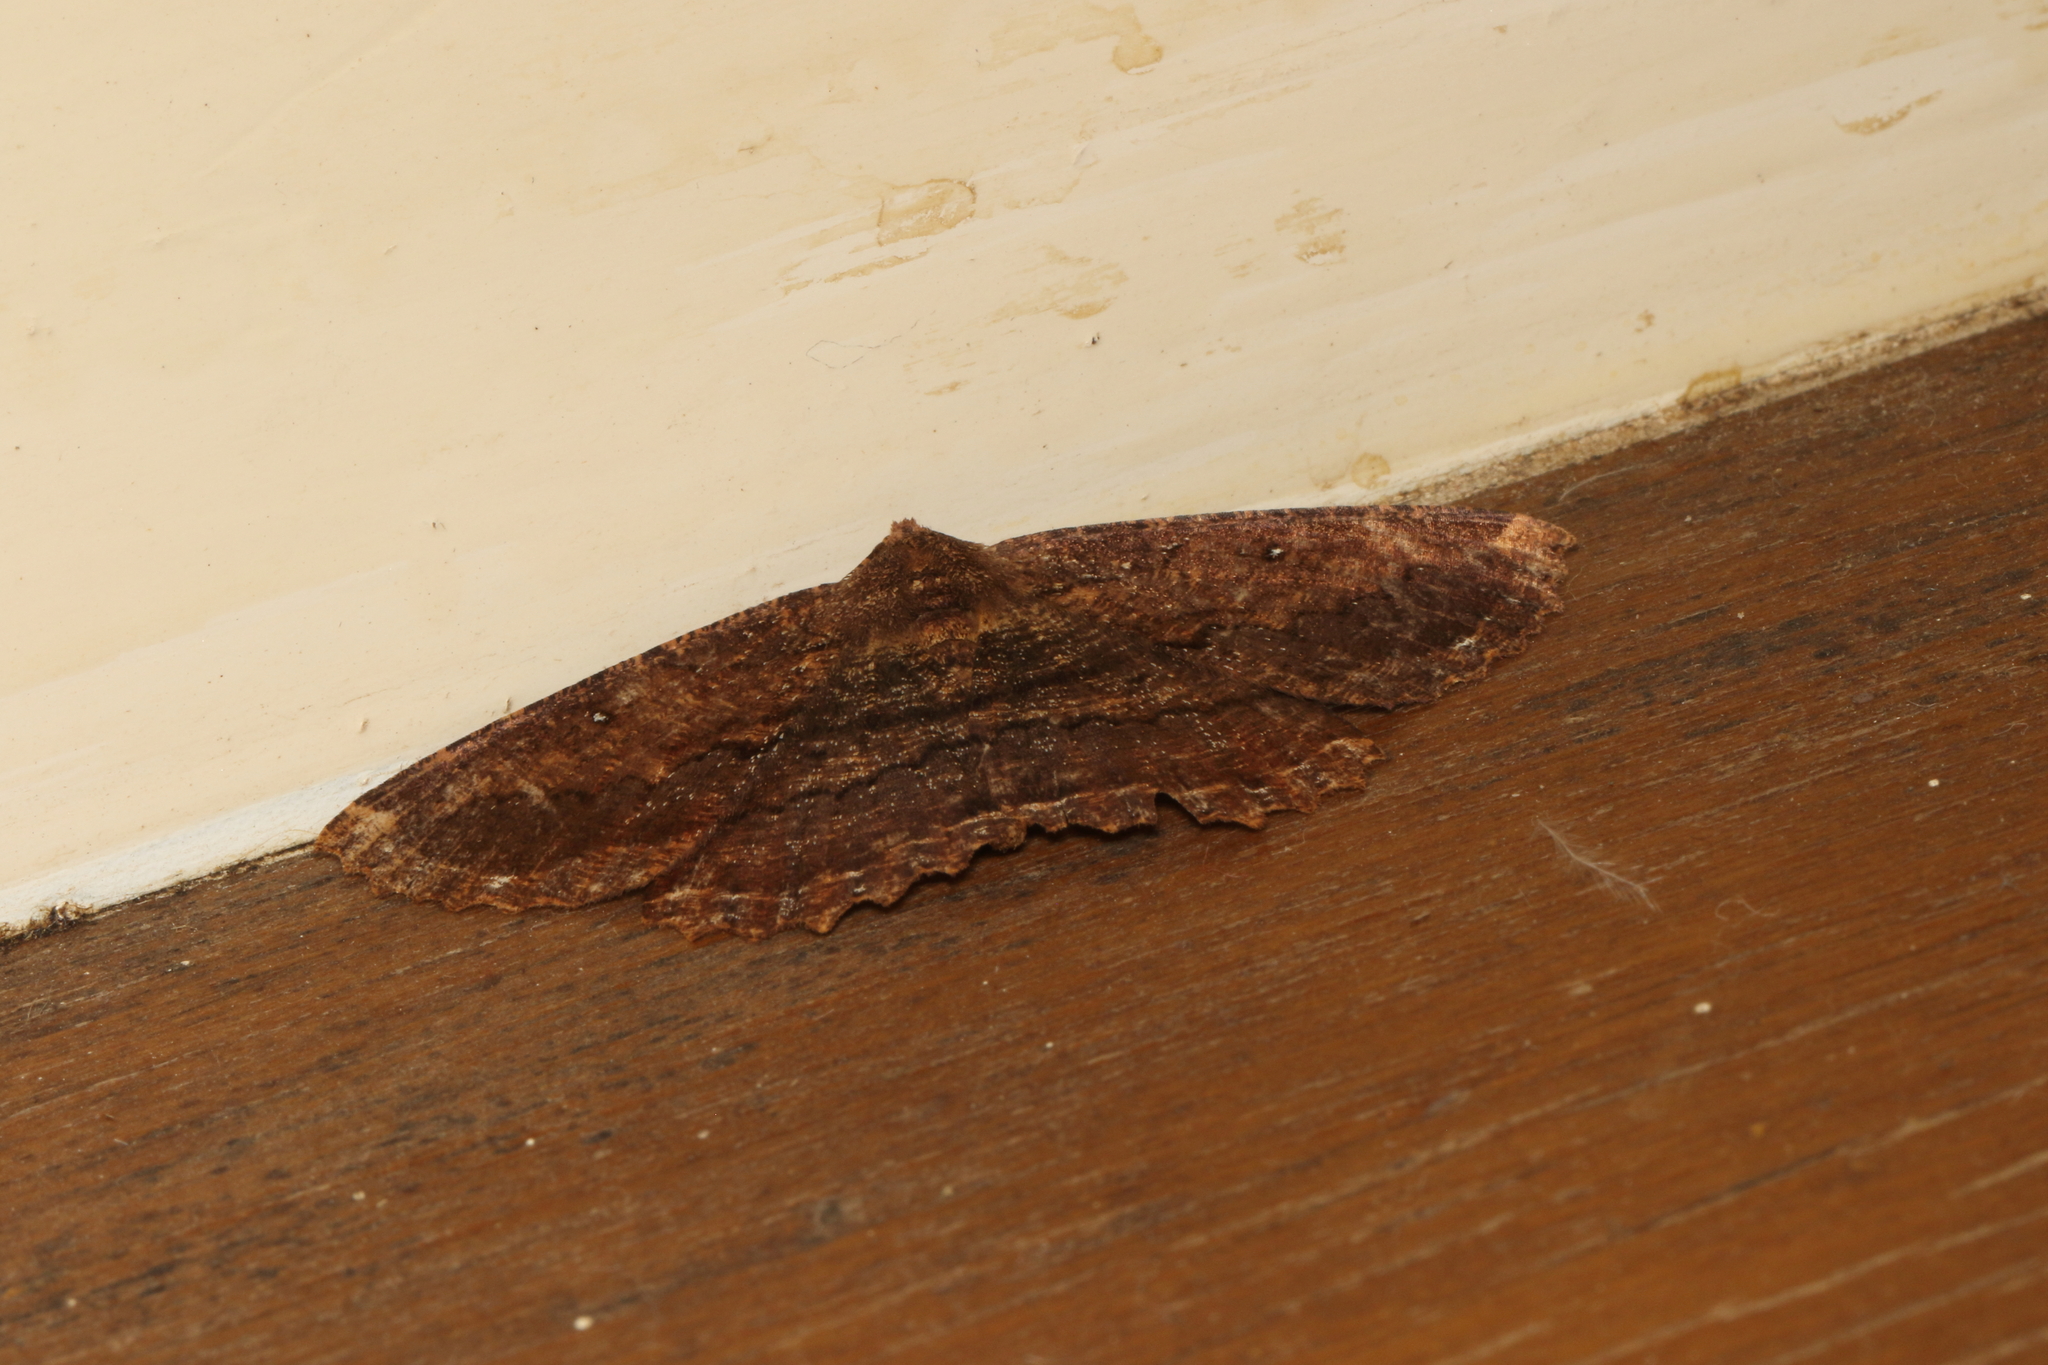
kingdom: Animalia
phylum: Arthropoda
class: Insecta
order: Lepidoptera
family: Geometridae
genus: Gellonia
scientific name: Gellonia dejectaria
